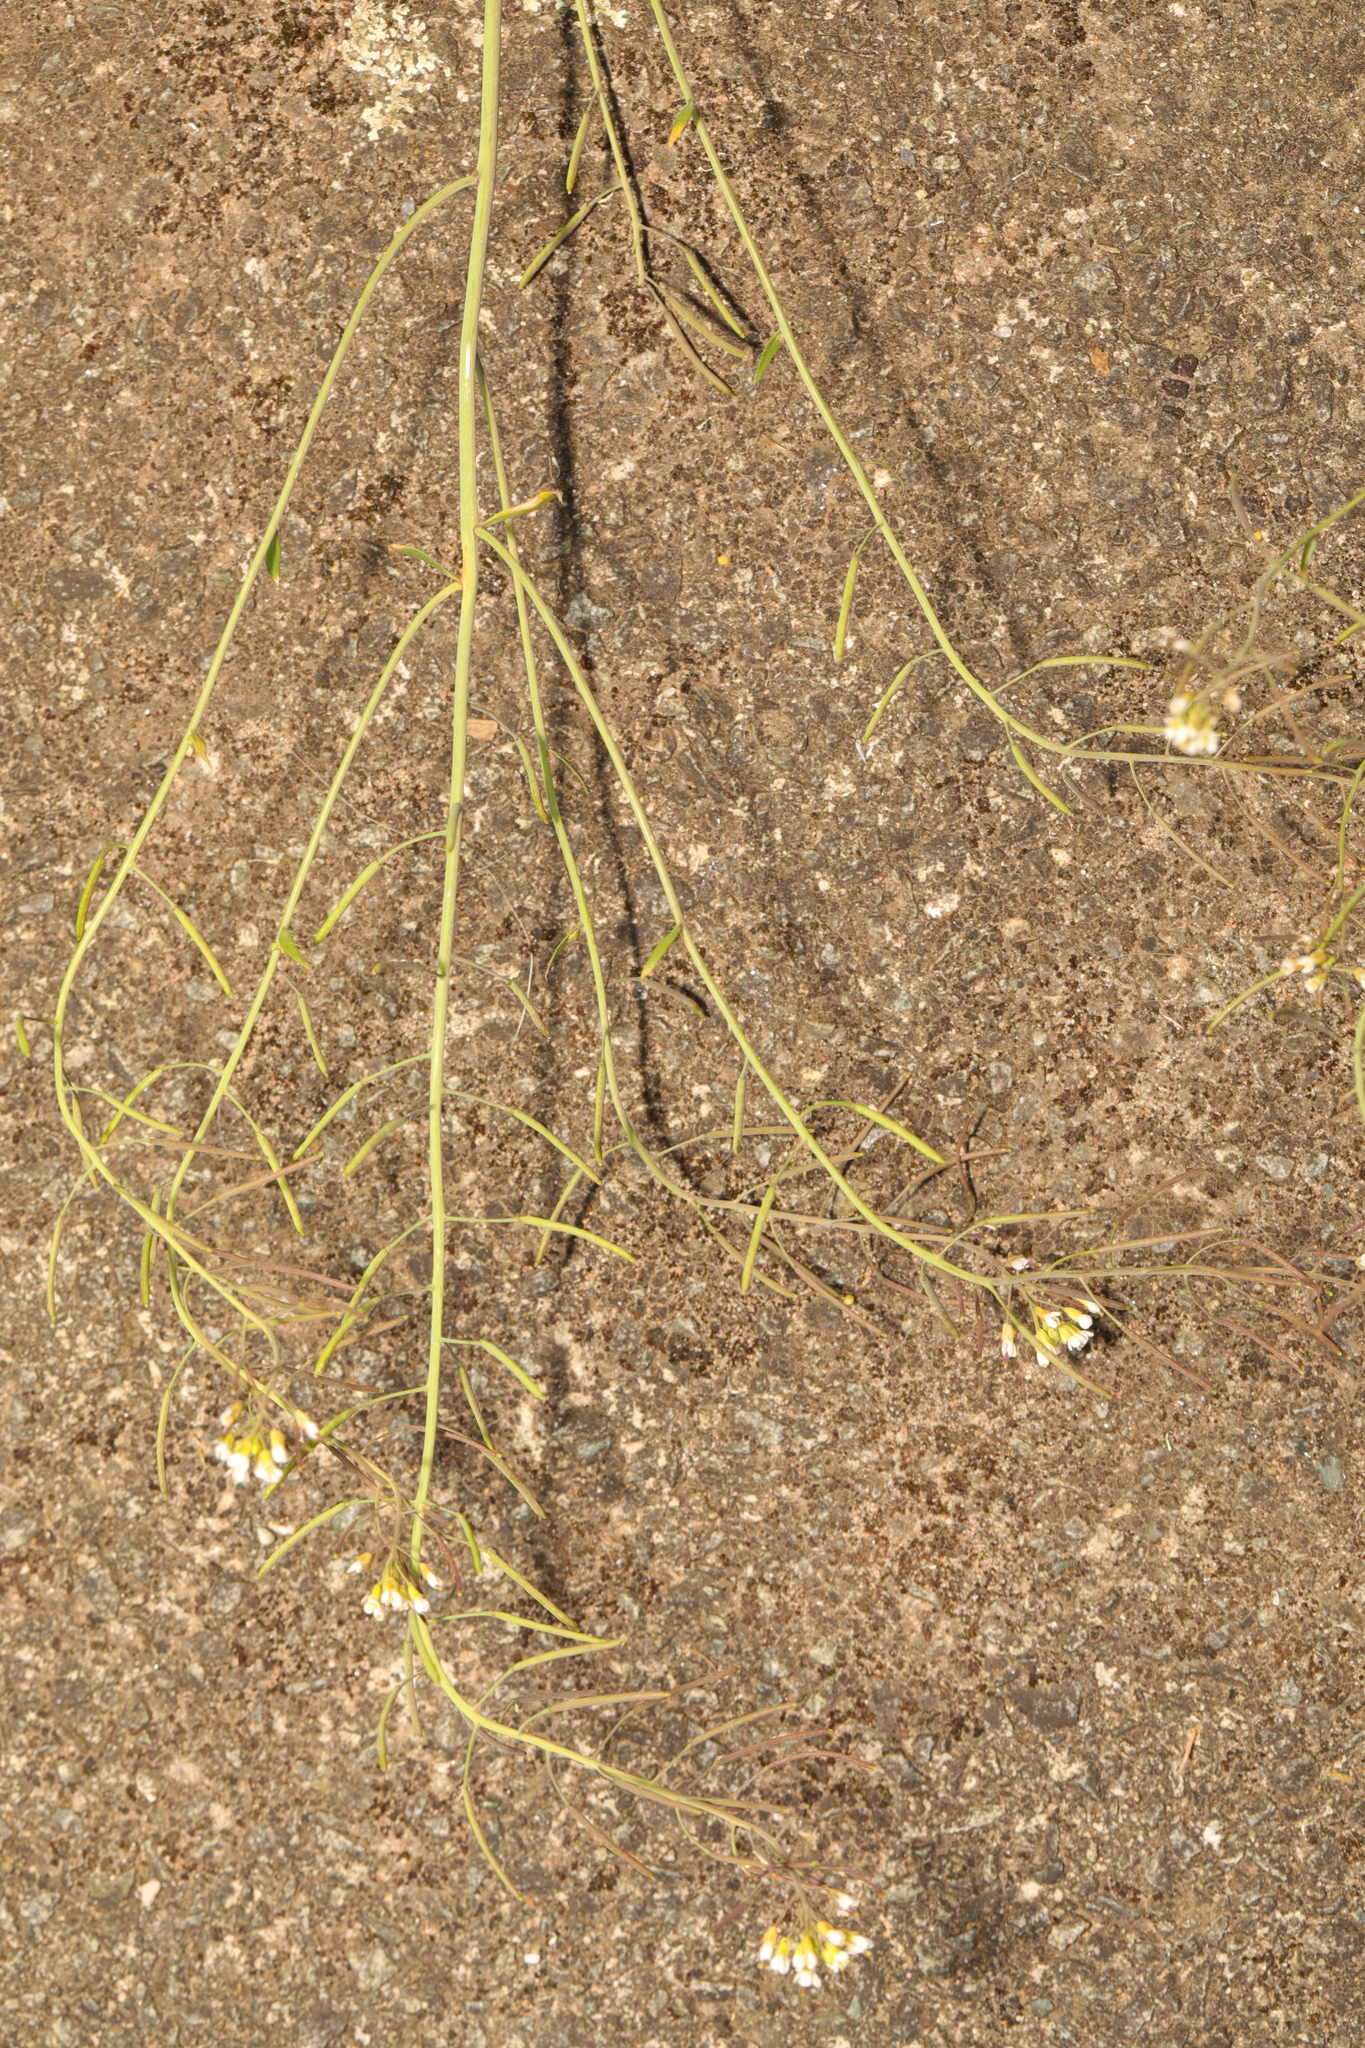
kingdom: Plantae
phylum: Tracheophyta
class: Magnoliopsida
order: Brassicales
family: Brassicaceae
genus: Arabidopsis
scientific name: Arabidopsis thaliana
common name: Thale cress
